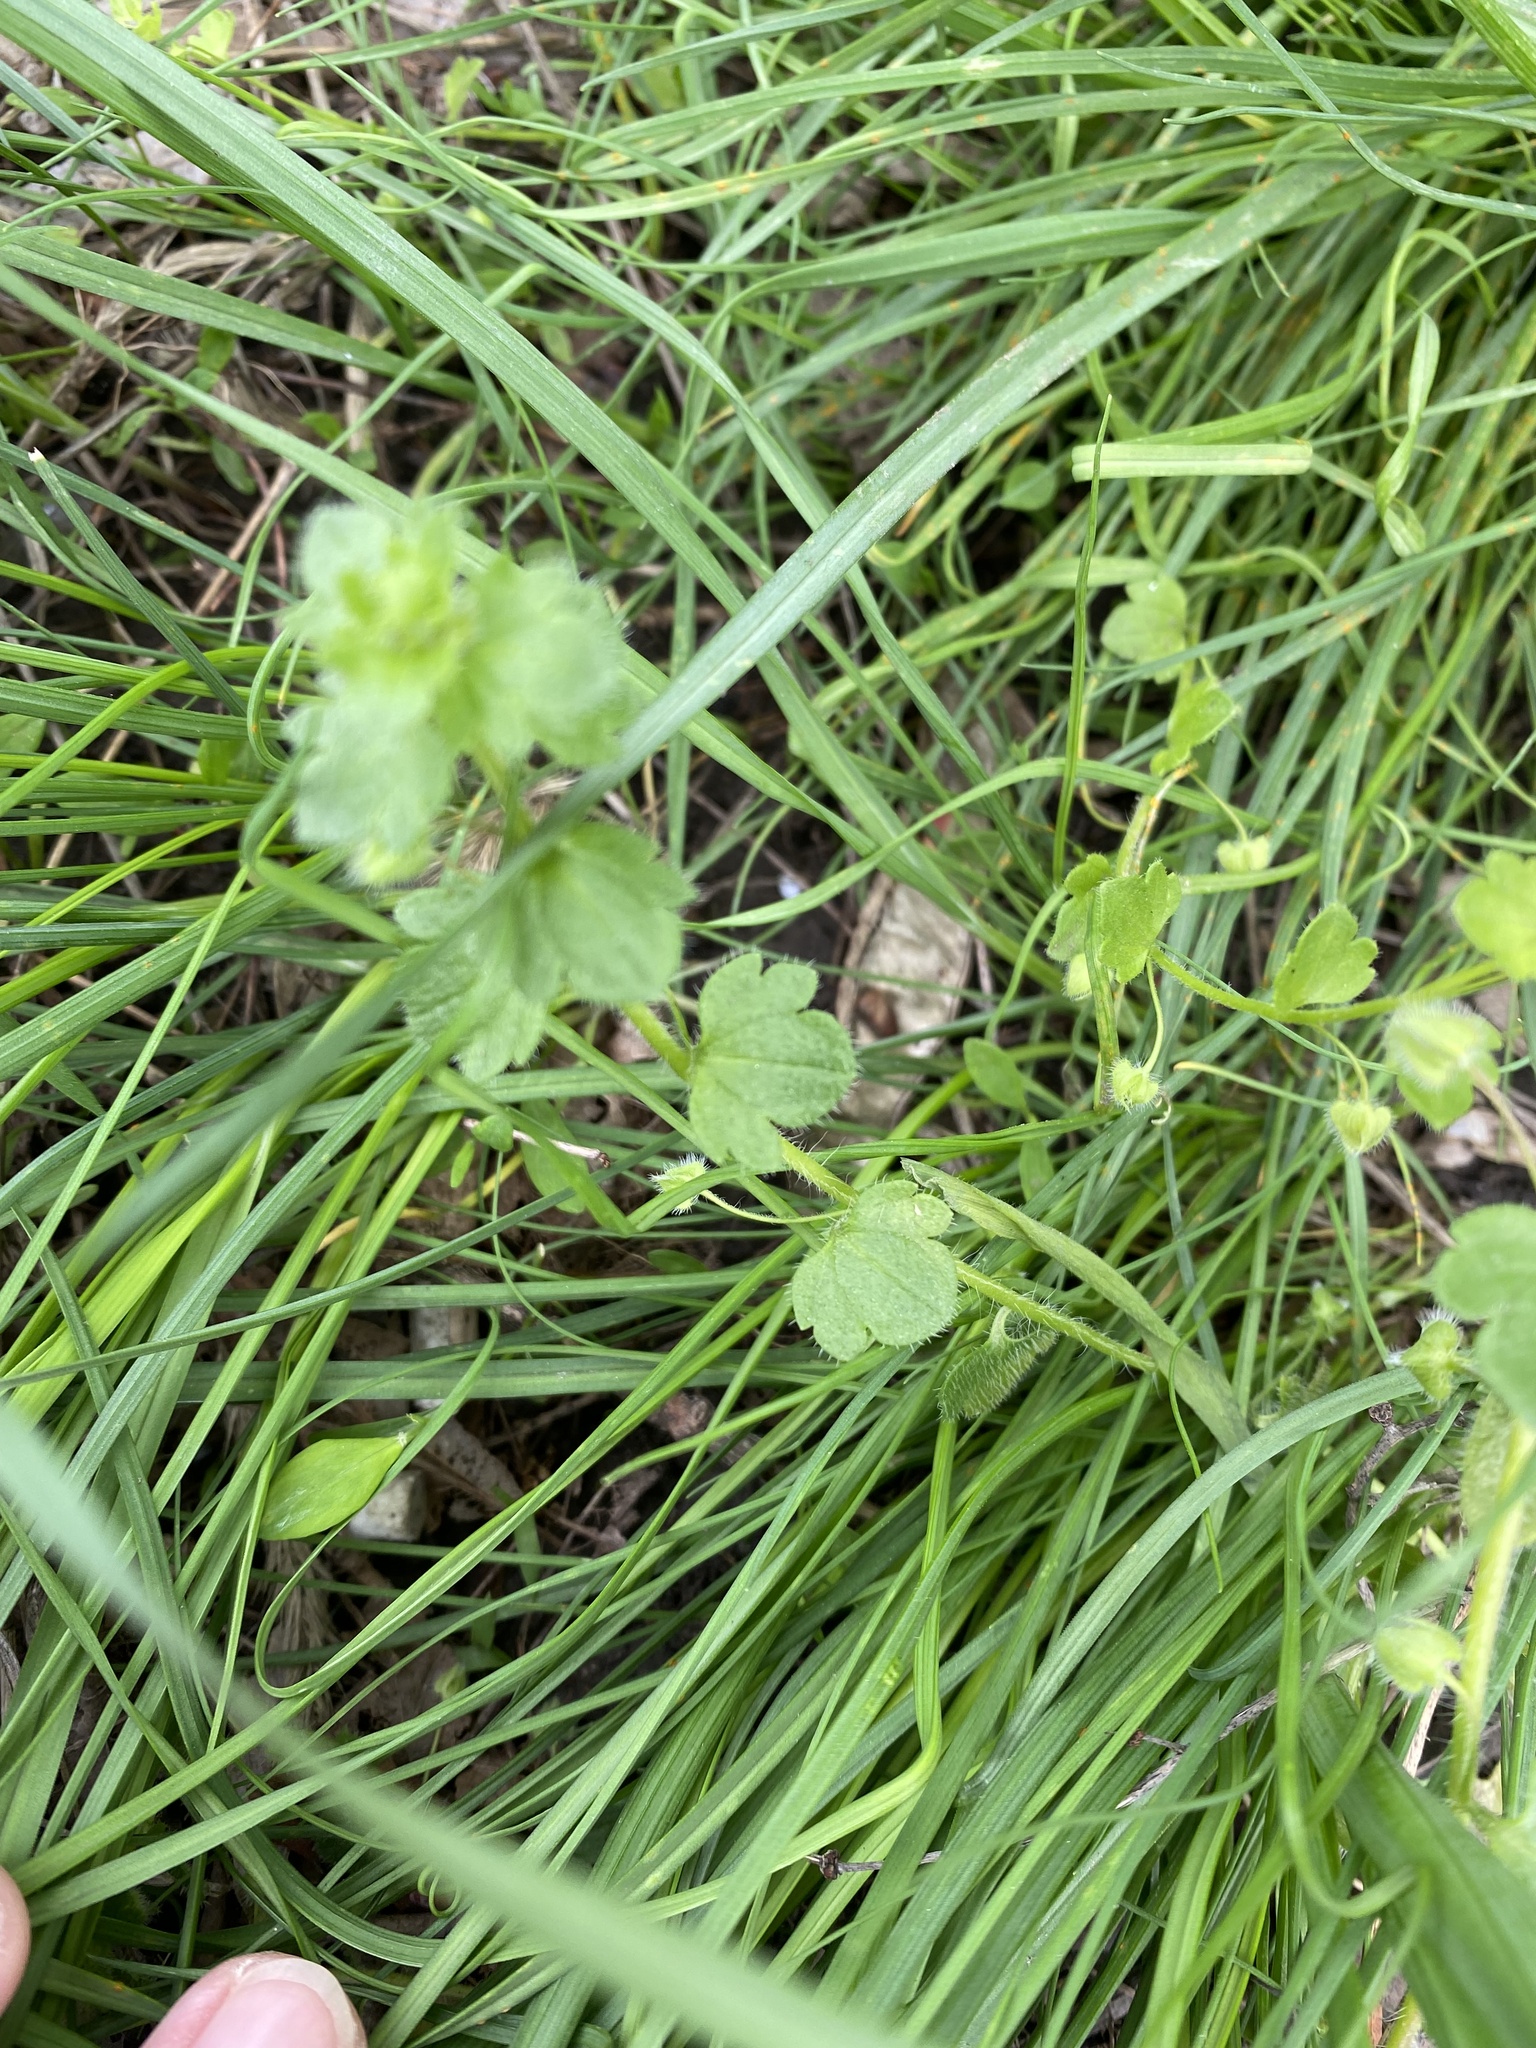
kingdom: Plantae
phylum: Tracheophyta
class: Magnoliopsida
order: Lamiales
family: Plantaginaceae
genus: Veronica
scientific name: Veronica hederifolia
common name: Ivy-leaved speedwell
